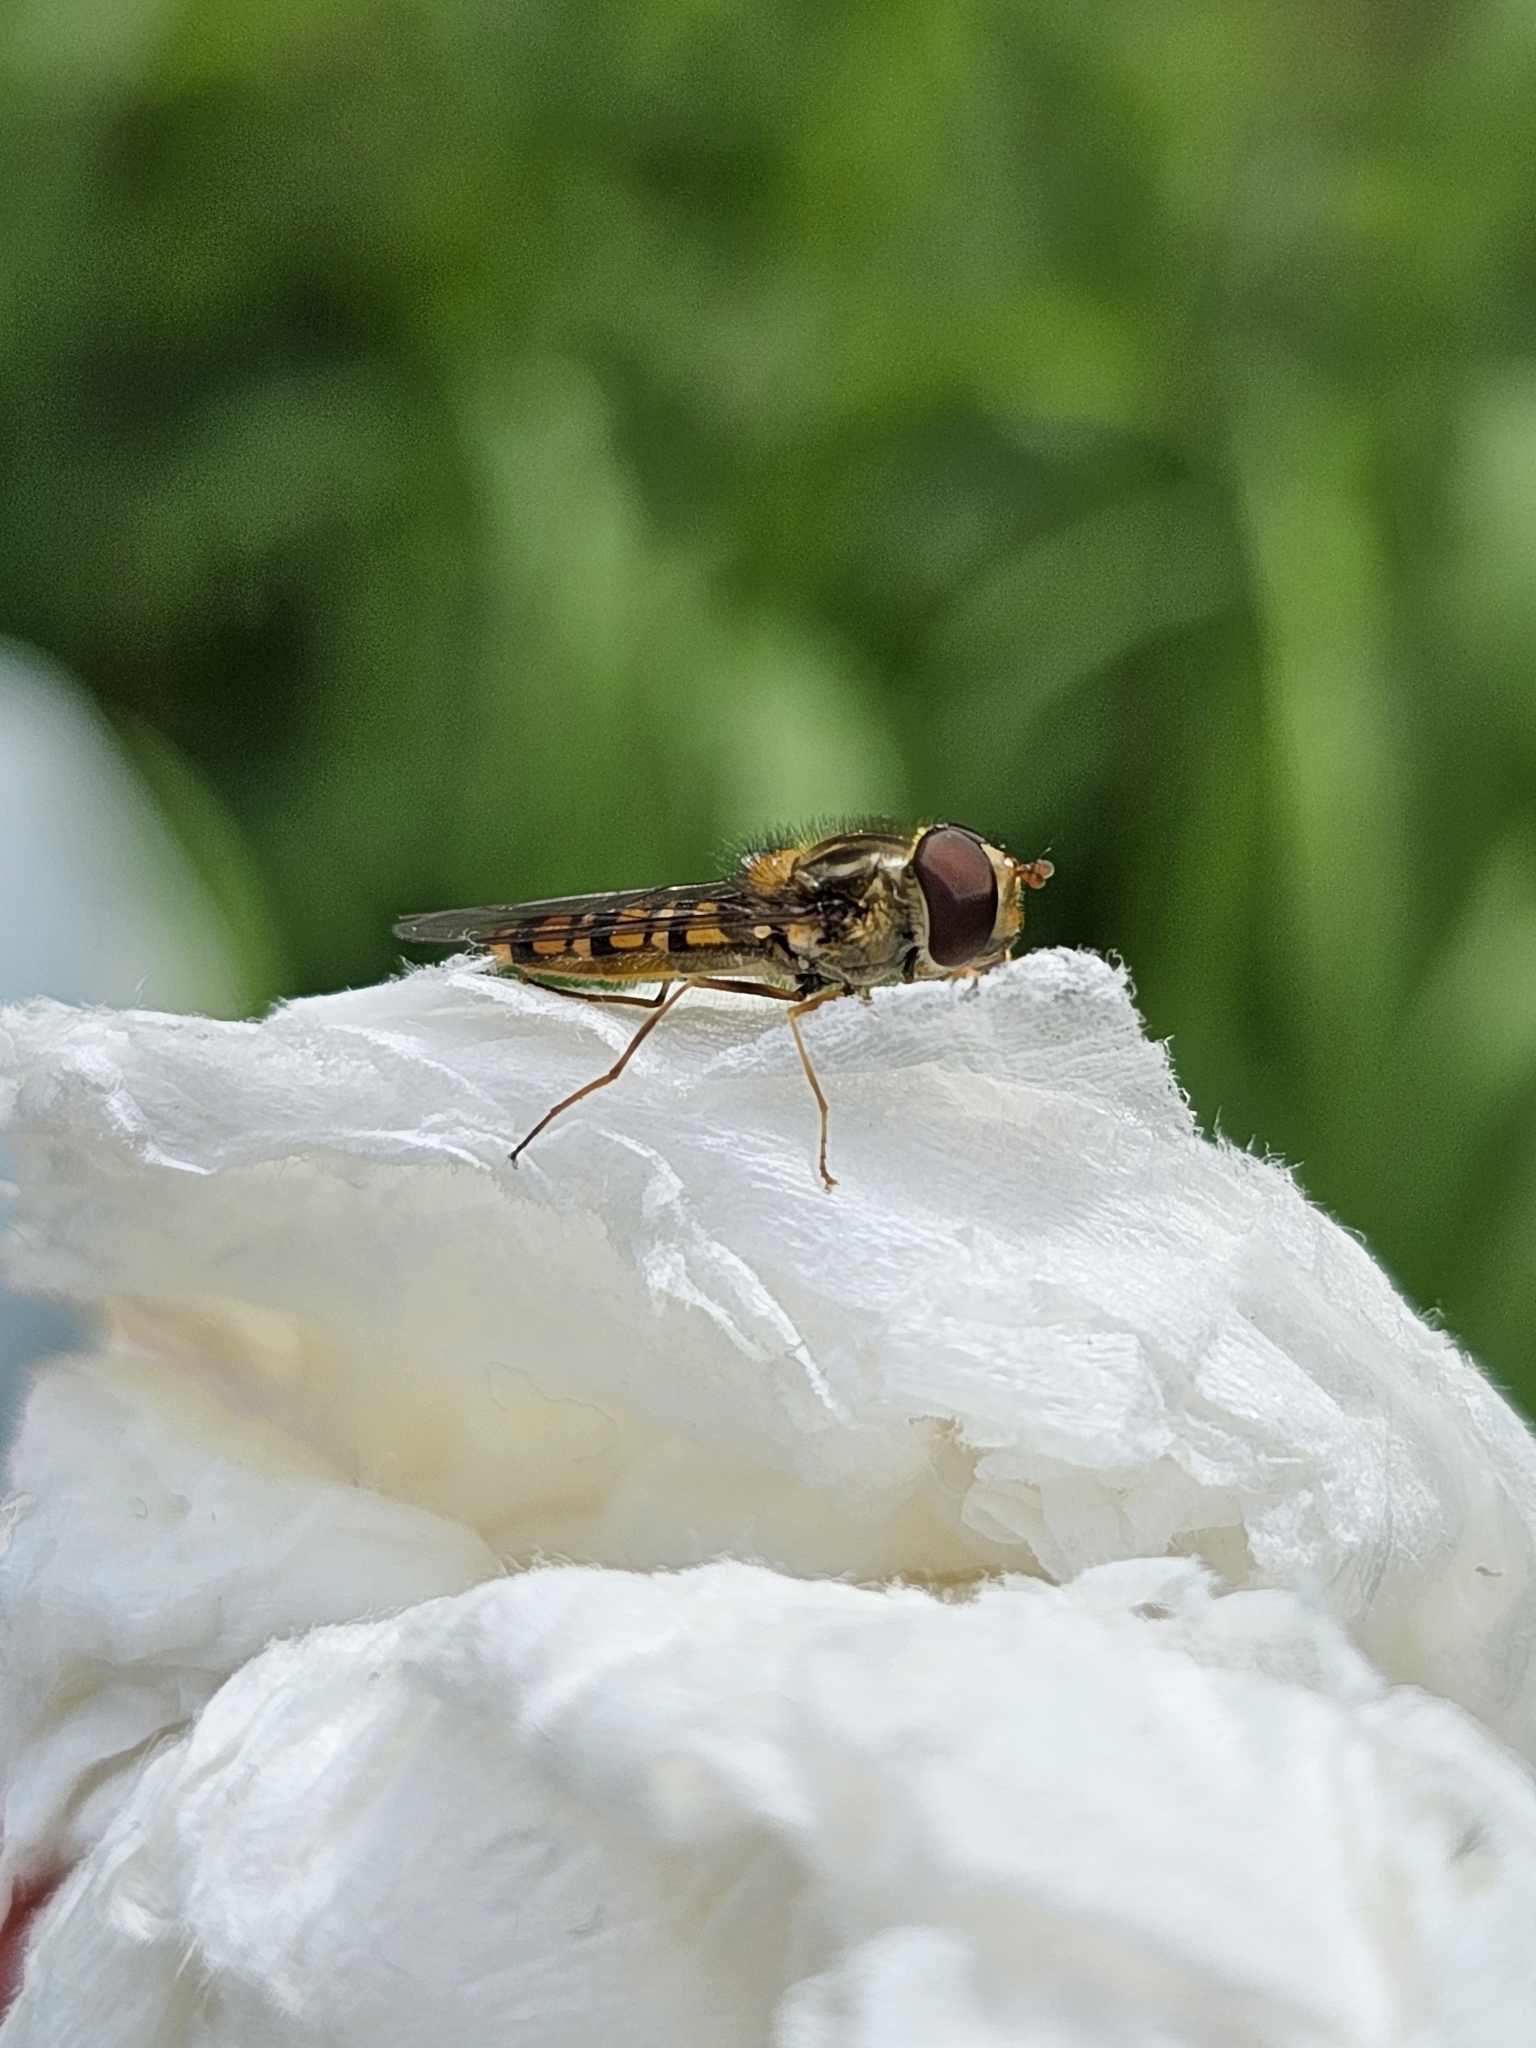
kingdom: Animalia
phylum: Arthropoda
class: Insecta
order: Diptera
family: Syrphidae
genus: Episyrphus
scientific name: Episyrphus balteatus
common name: Marmalade hoverfly
